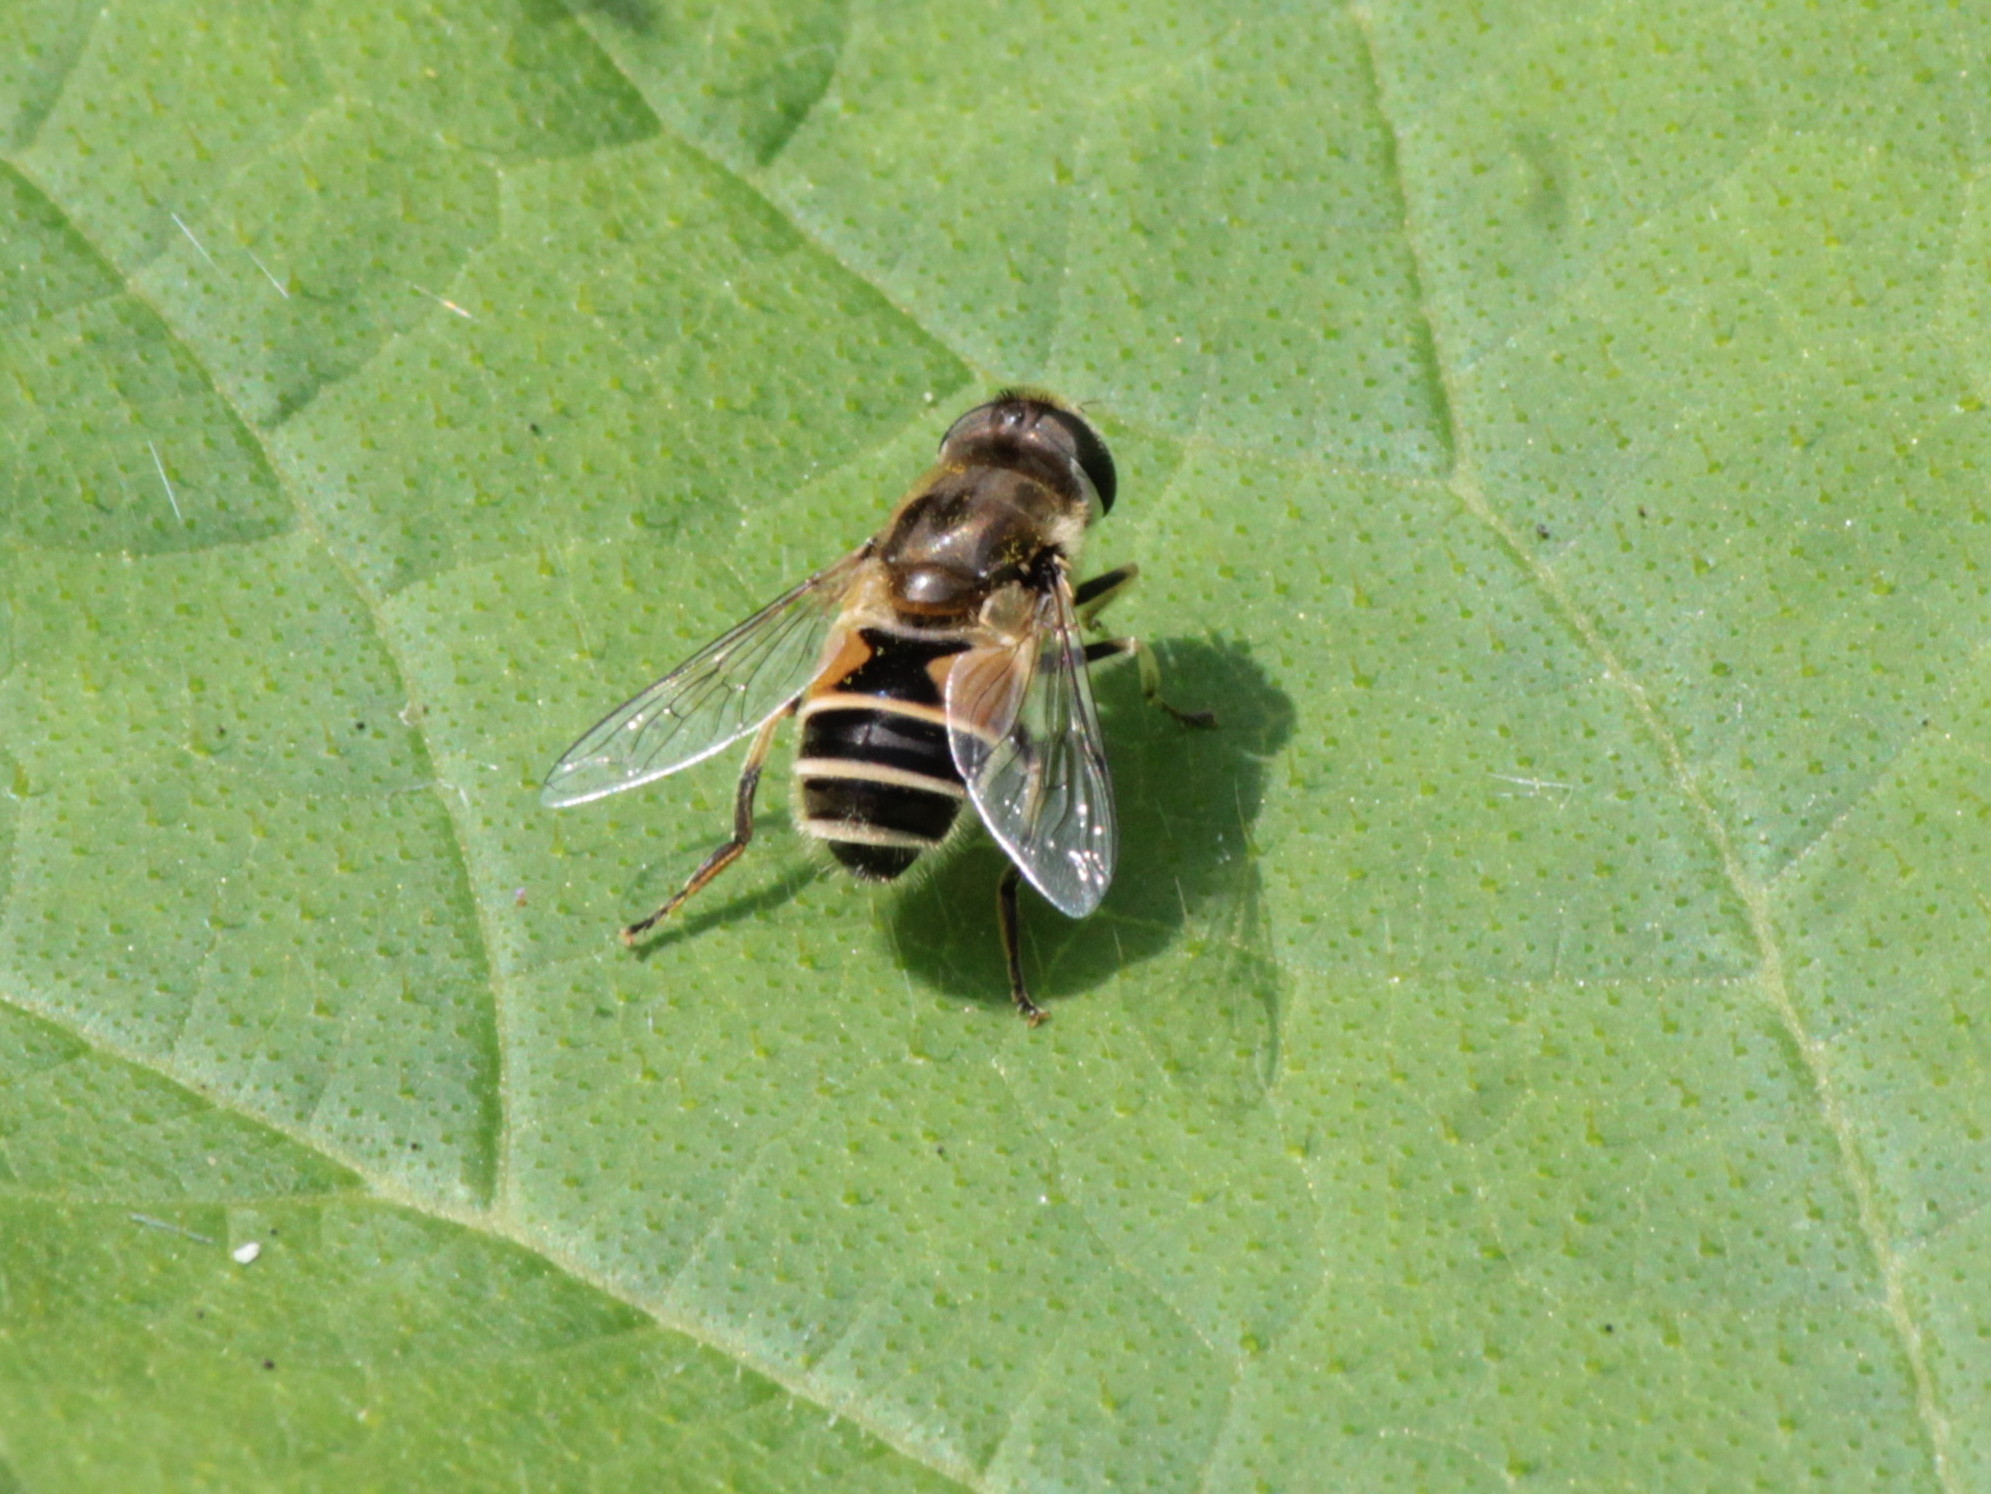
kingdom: Animalia
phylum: Arthropoda
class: Insecta
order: Diptera
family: Syrphidae
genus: Eristalis
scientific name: Eristalis arbustorum
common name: Hover fly
